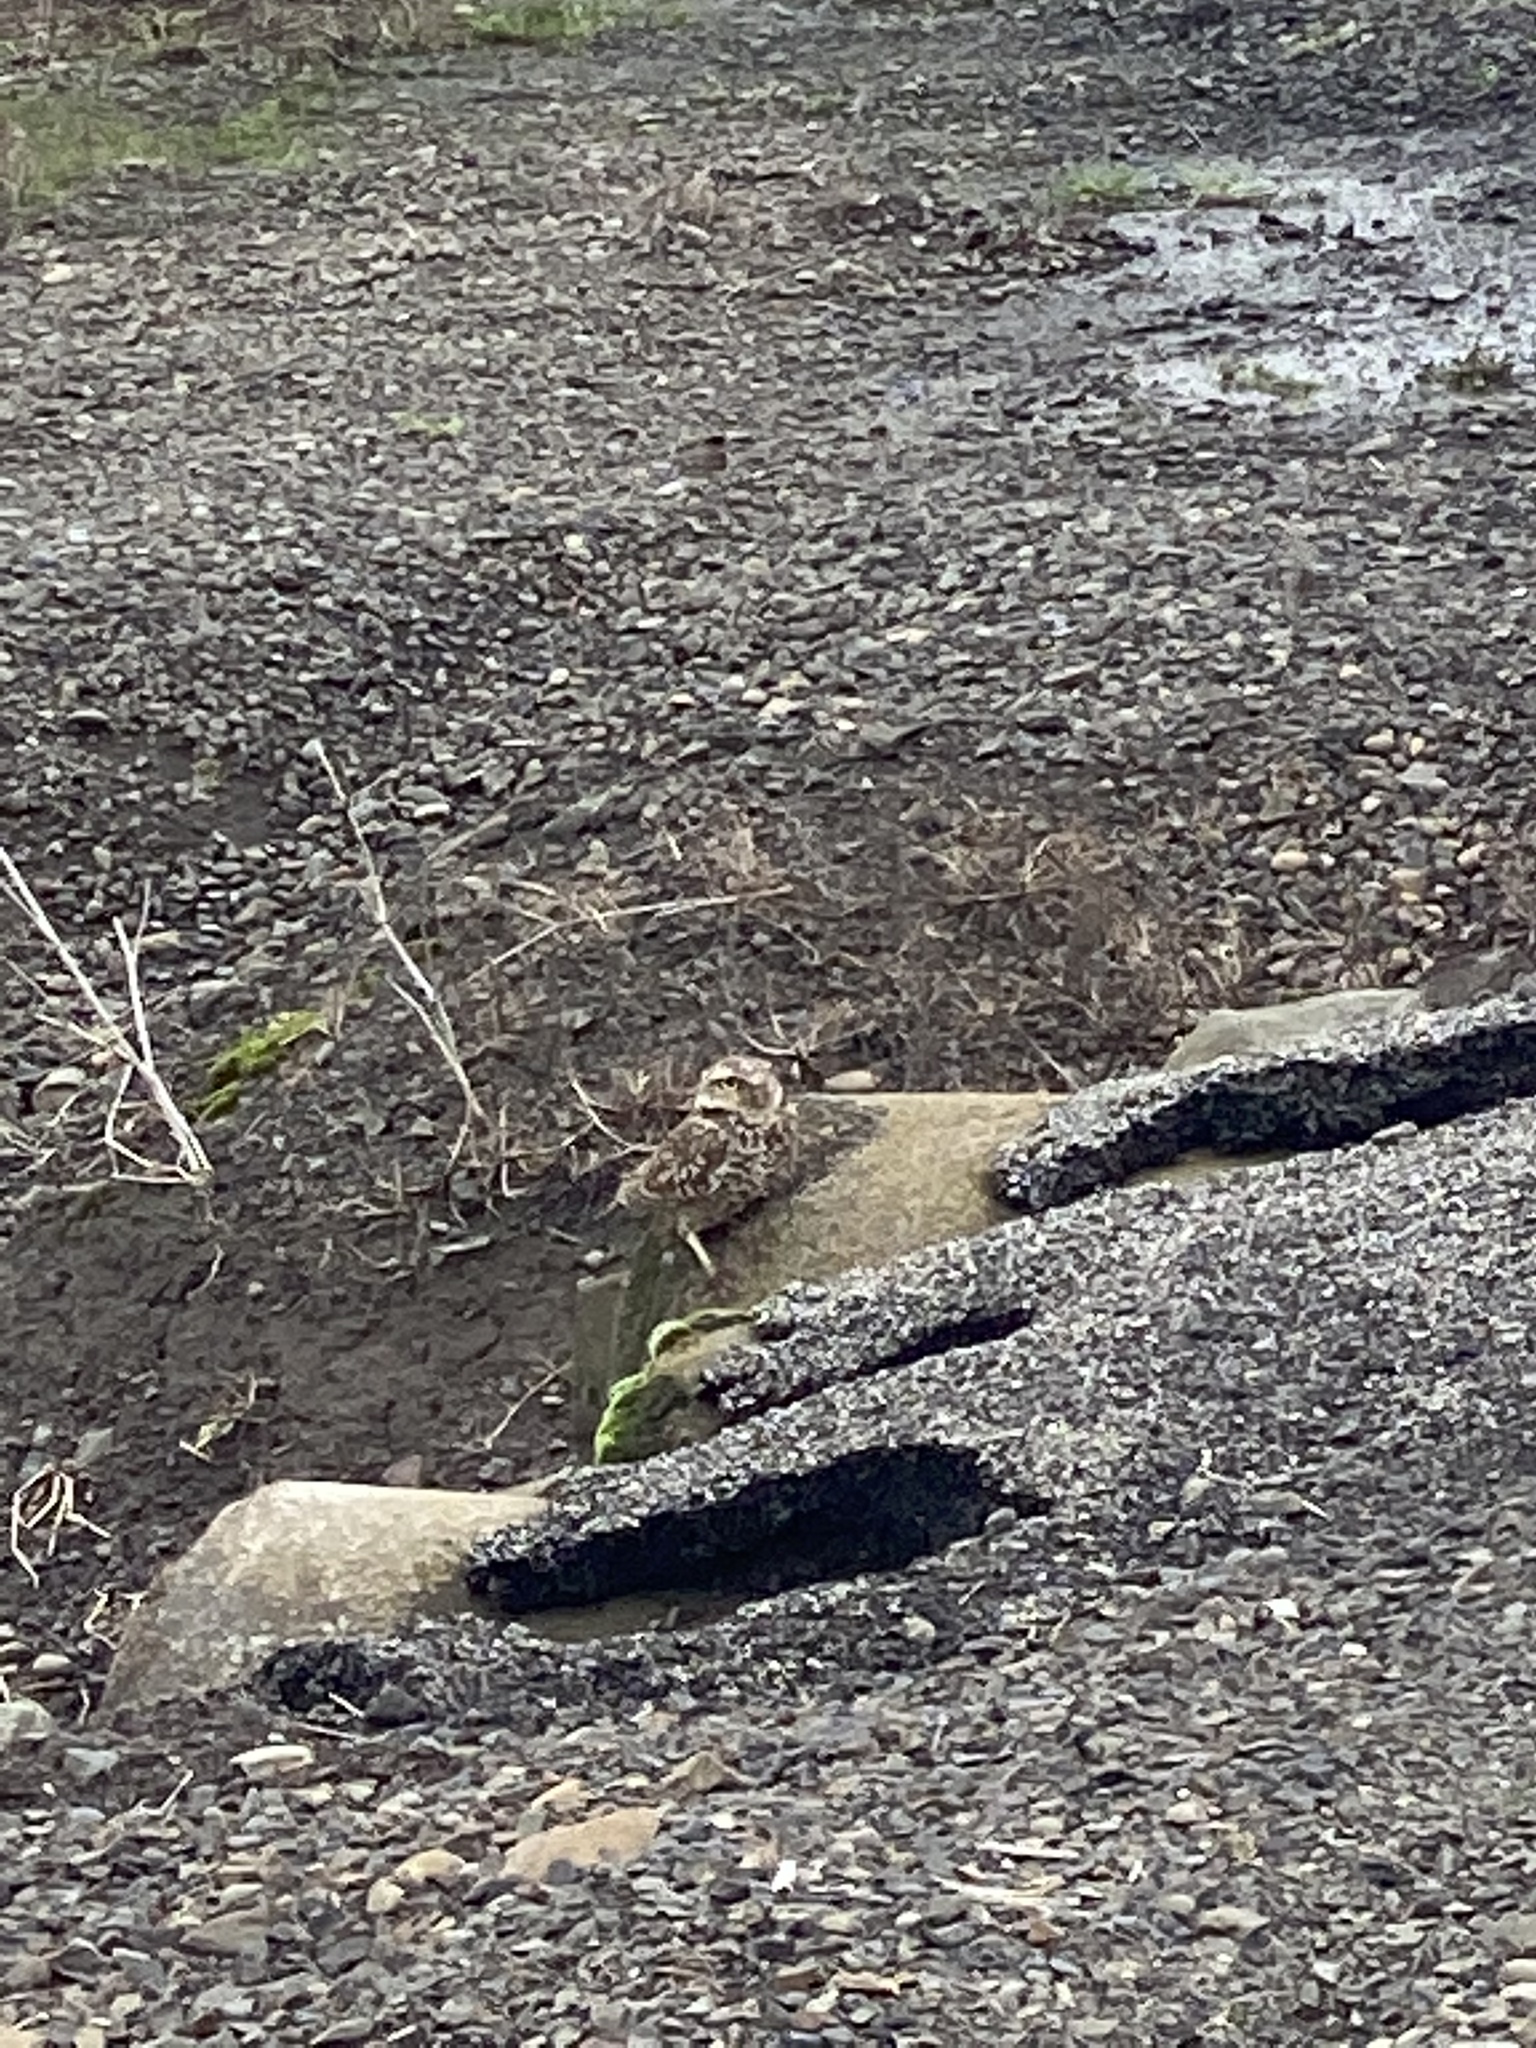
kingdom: Animalia
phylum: Chordata
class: Aves
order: Strigiformes
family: Strigidae
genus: Athene
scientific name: Athene cunicularia
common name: Burrowing owl
